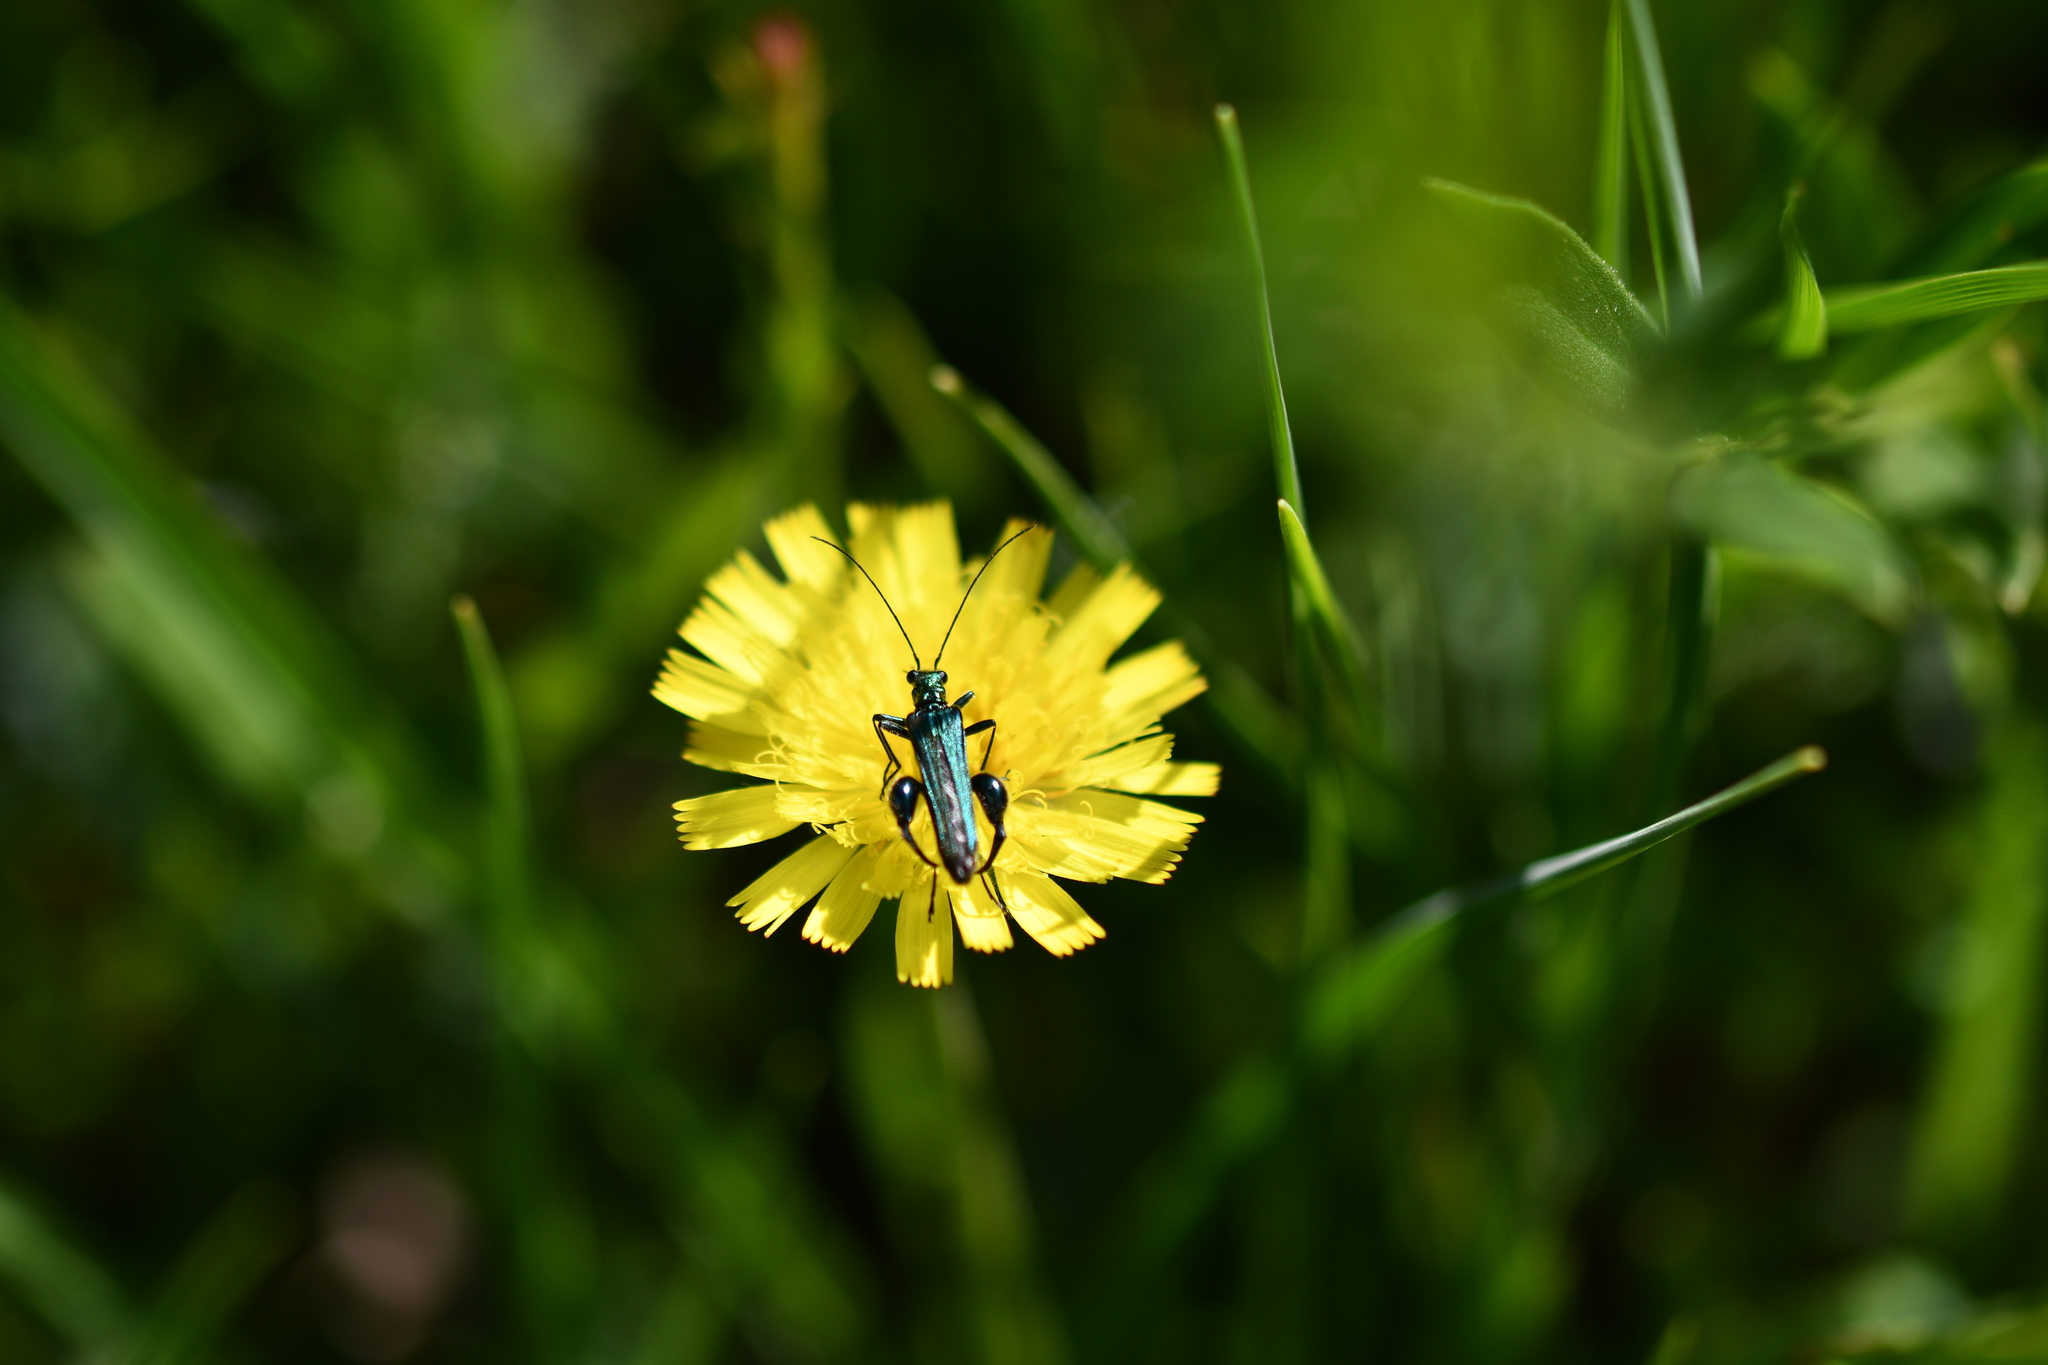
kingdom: Animalia
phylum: Arthropoda
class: Insecta
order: Coleoptera
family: Oedemeridae
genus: Oedemera
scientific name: Oedemera nobilis
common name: Swollen-thighed beetle
